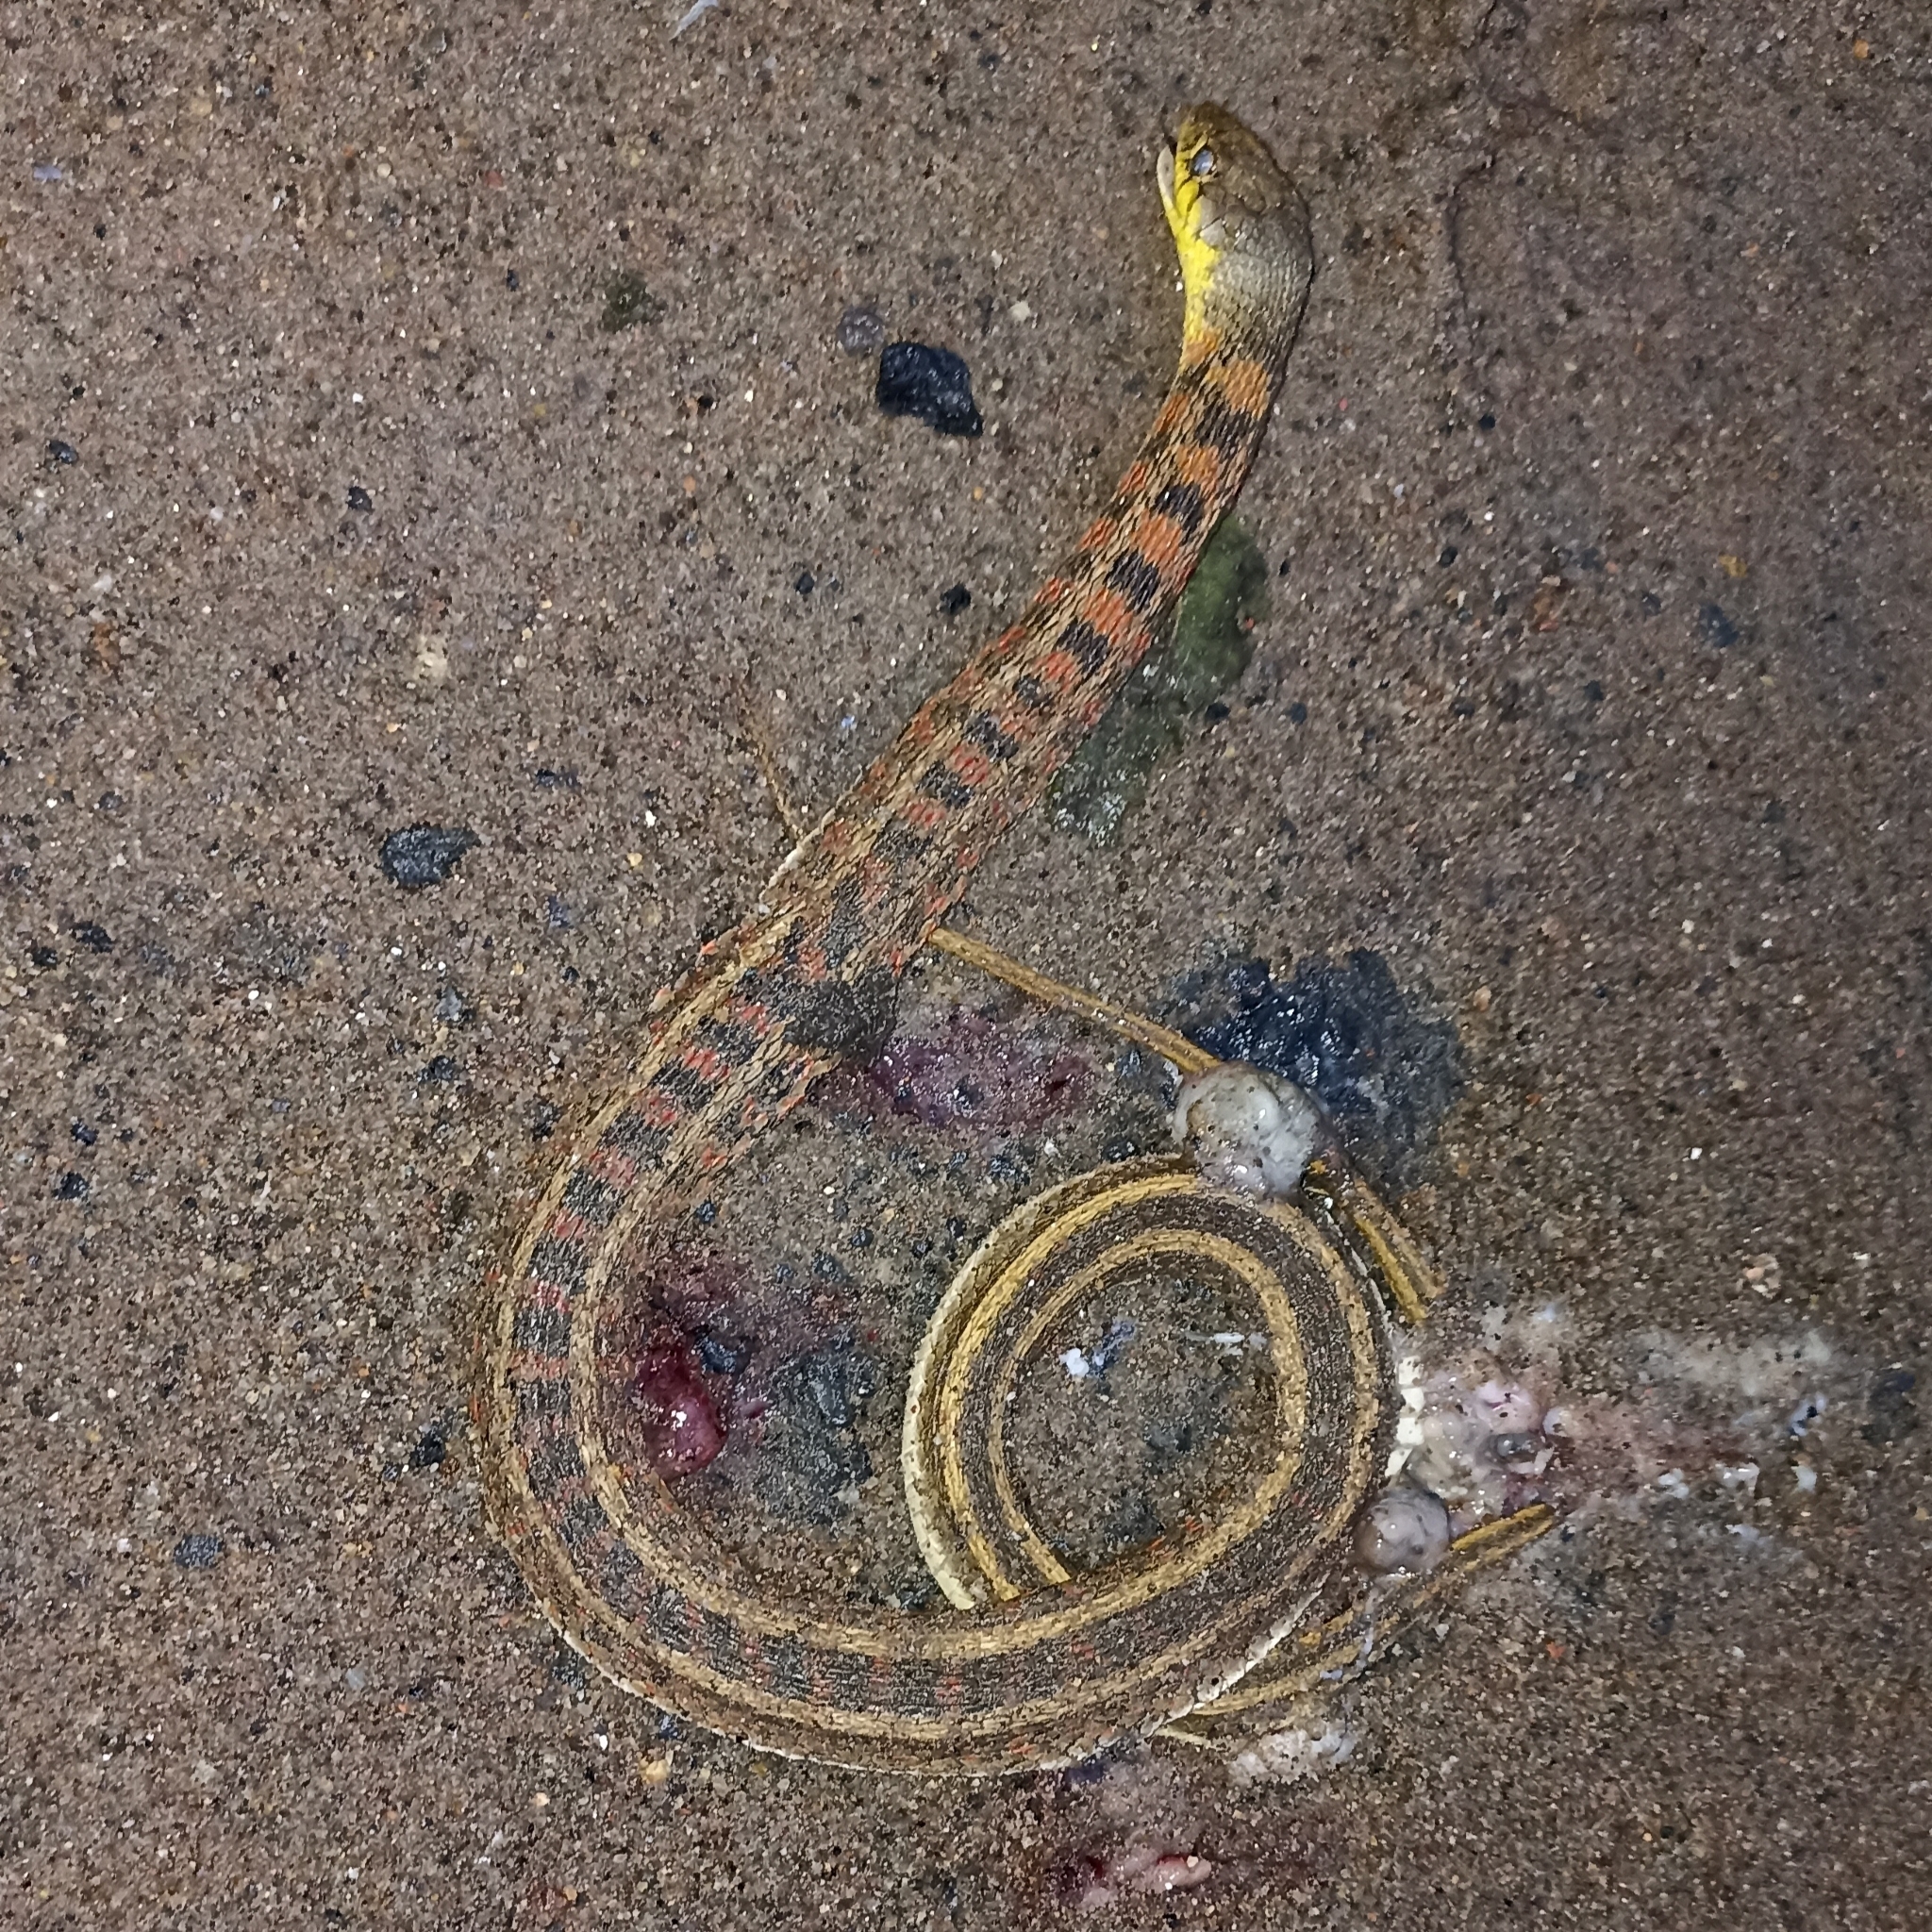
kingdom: Animalia
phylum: Chordata
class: Squamata
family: Colubridae
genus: Amphiesma
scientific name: Amphiesma stolatum
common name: Buff striped keelback
